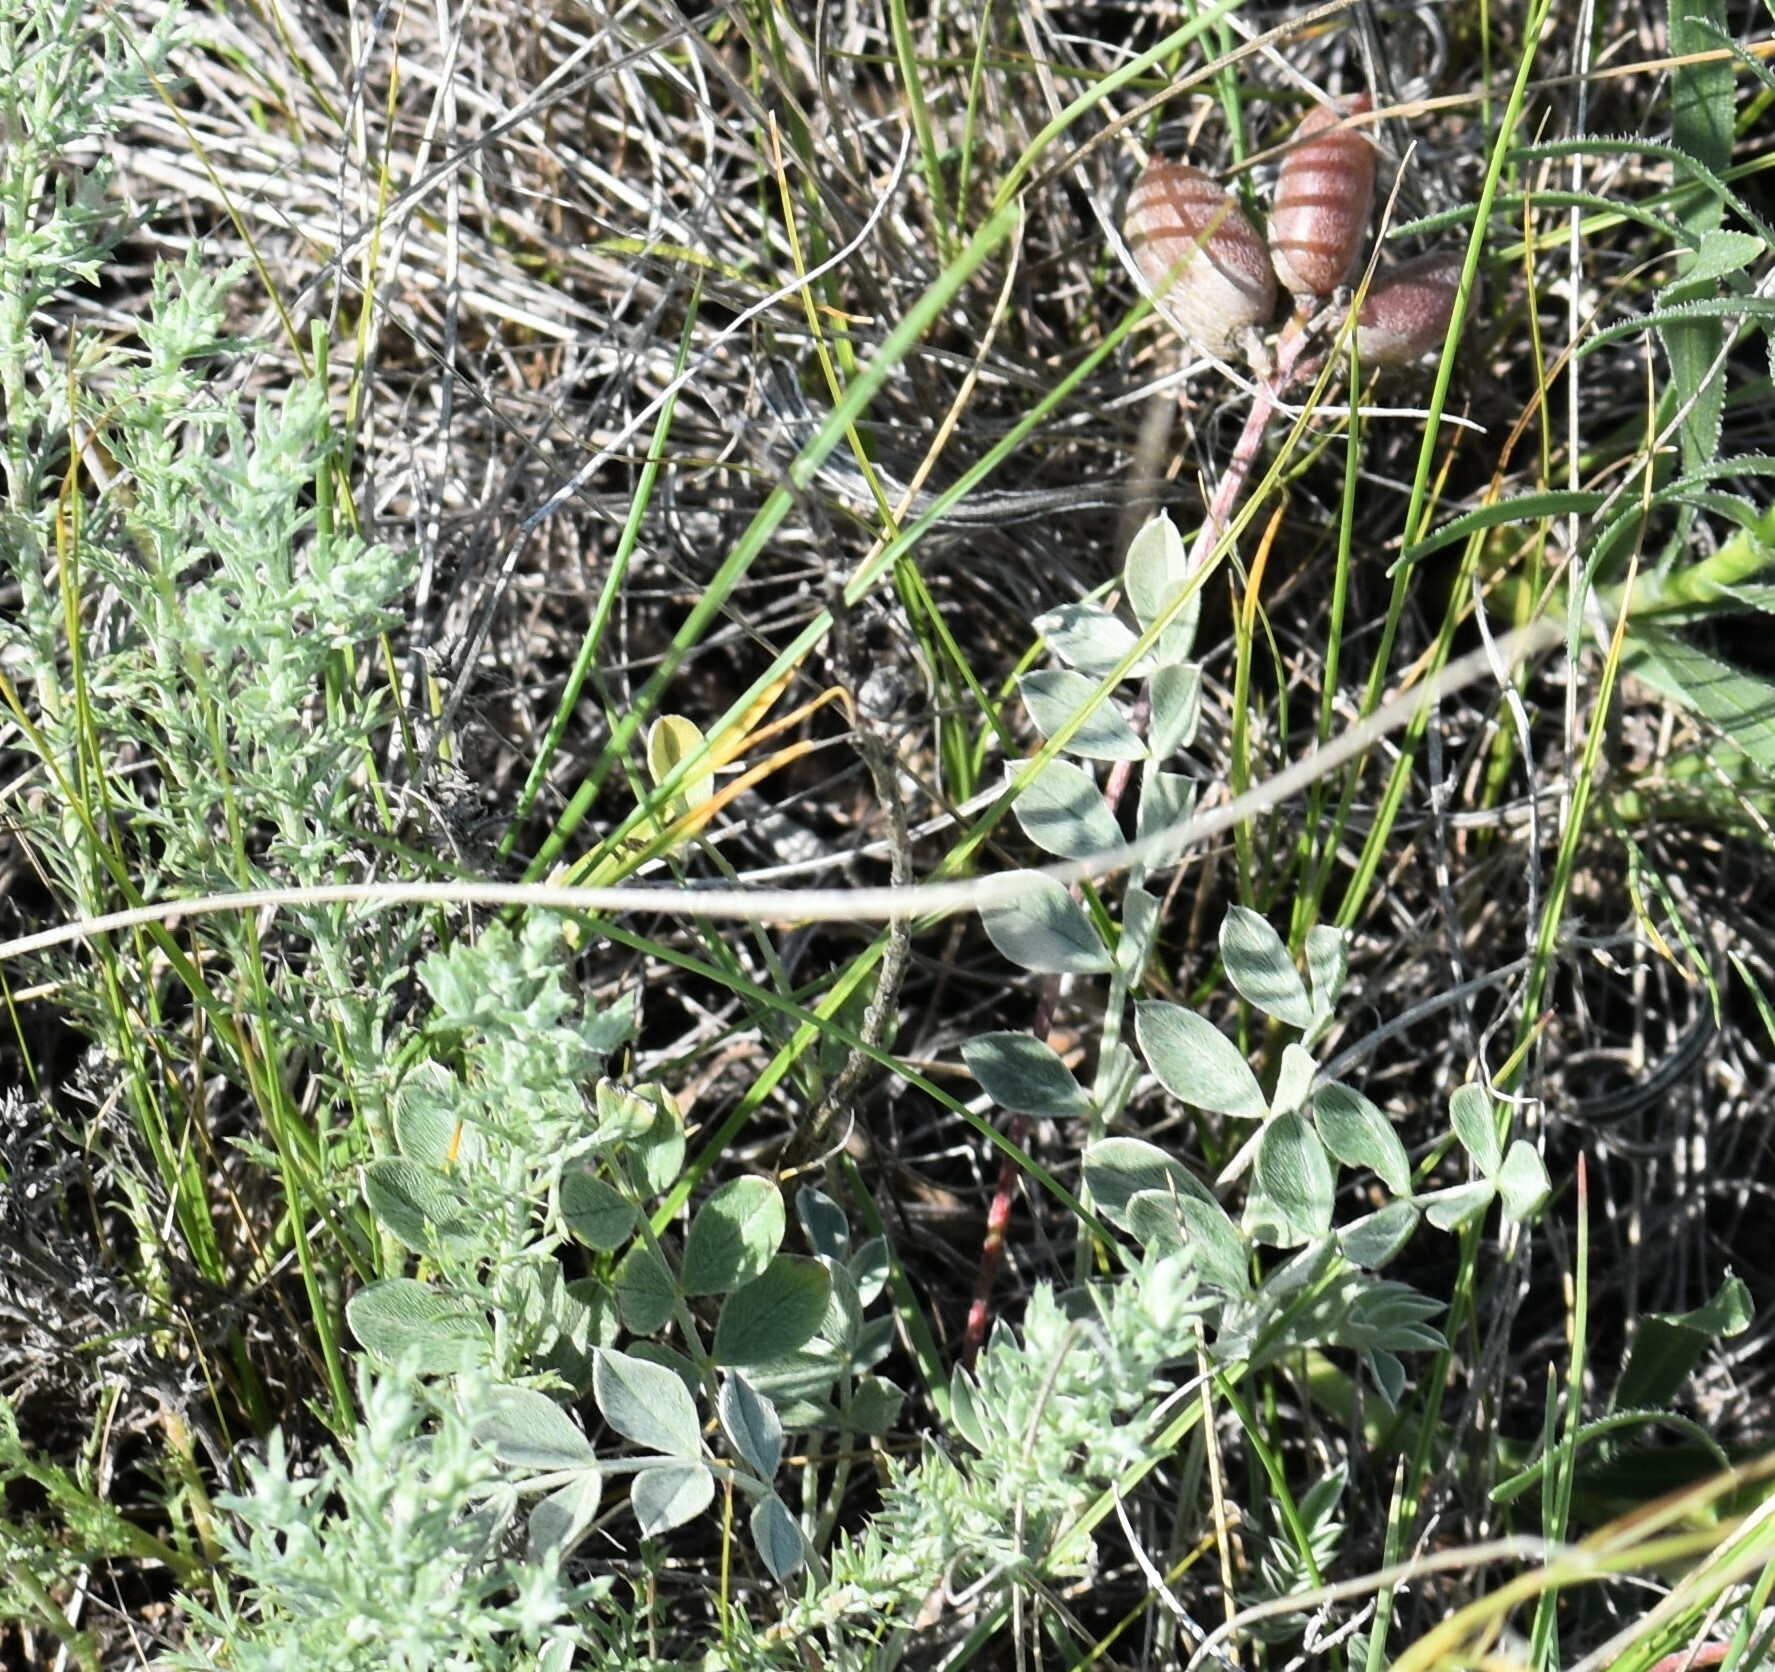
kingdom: Plantae
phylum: Tracheophyta
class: Magnoliopsida
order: Fabales
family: Fabaceae
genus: Astragalus
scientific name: Astragalus missouriensis
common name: Missouri milk-vetch
